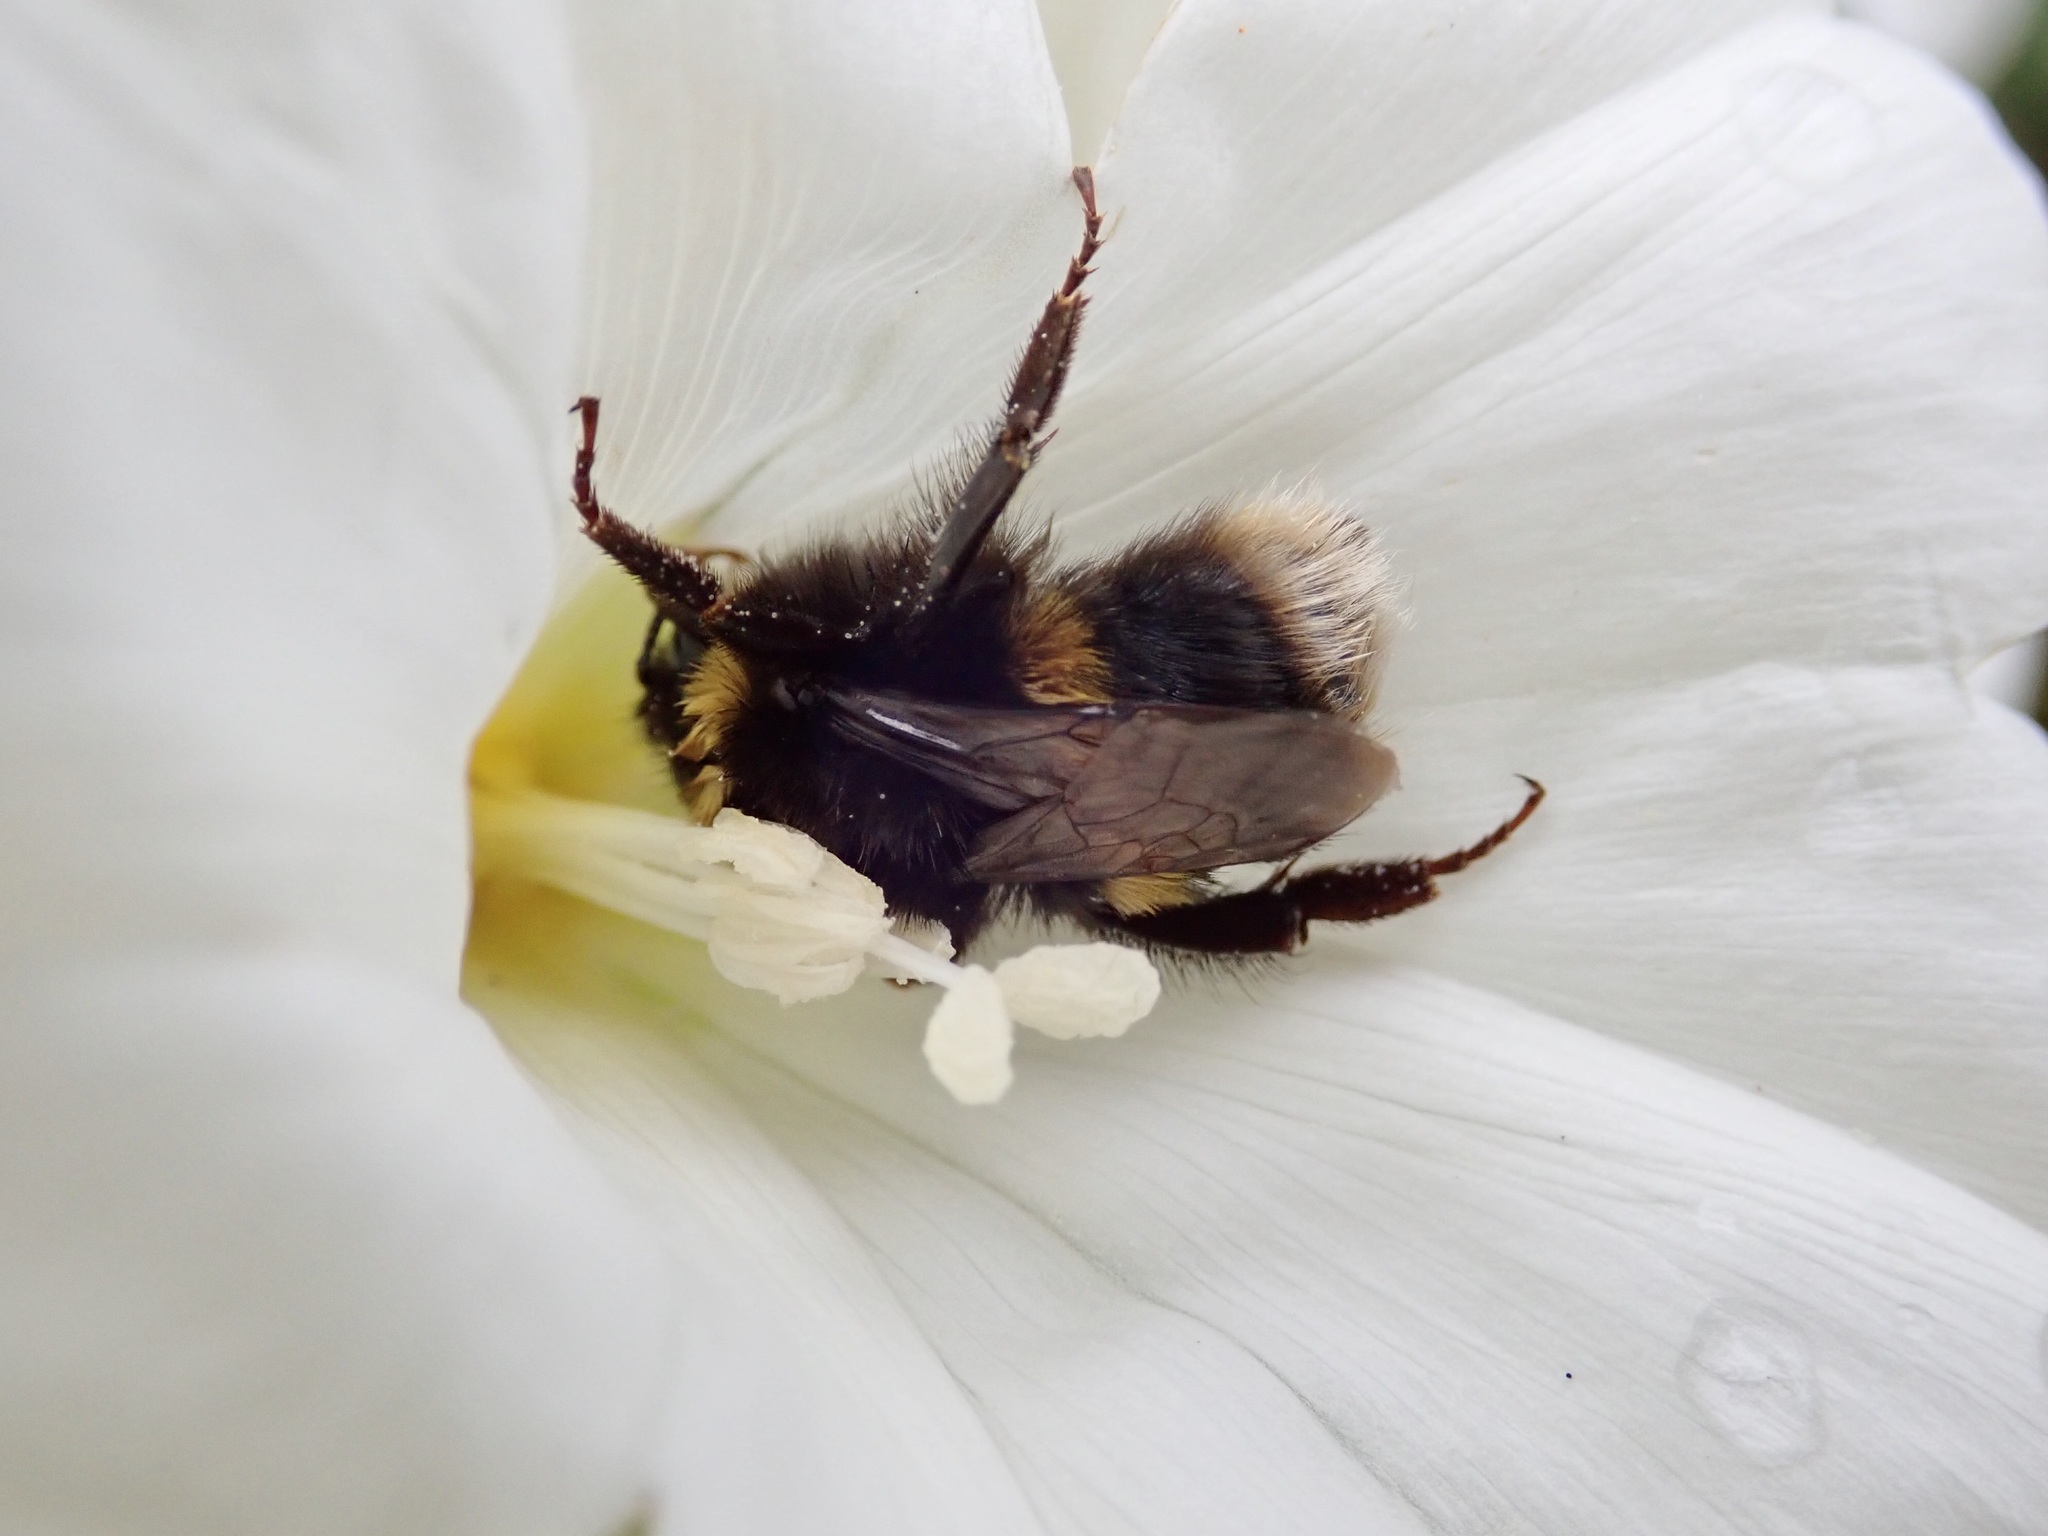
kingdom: Animalia
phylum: Arthropoda
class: Insecta
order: Hymenoptera
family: Apidae
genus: Bombus
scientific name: Bombus terrestris
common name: Buff-tailed bumblebee
